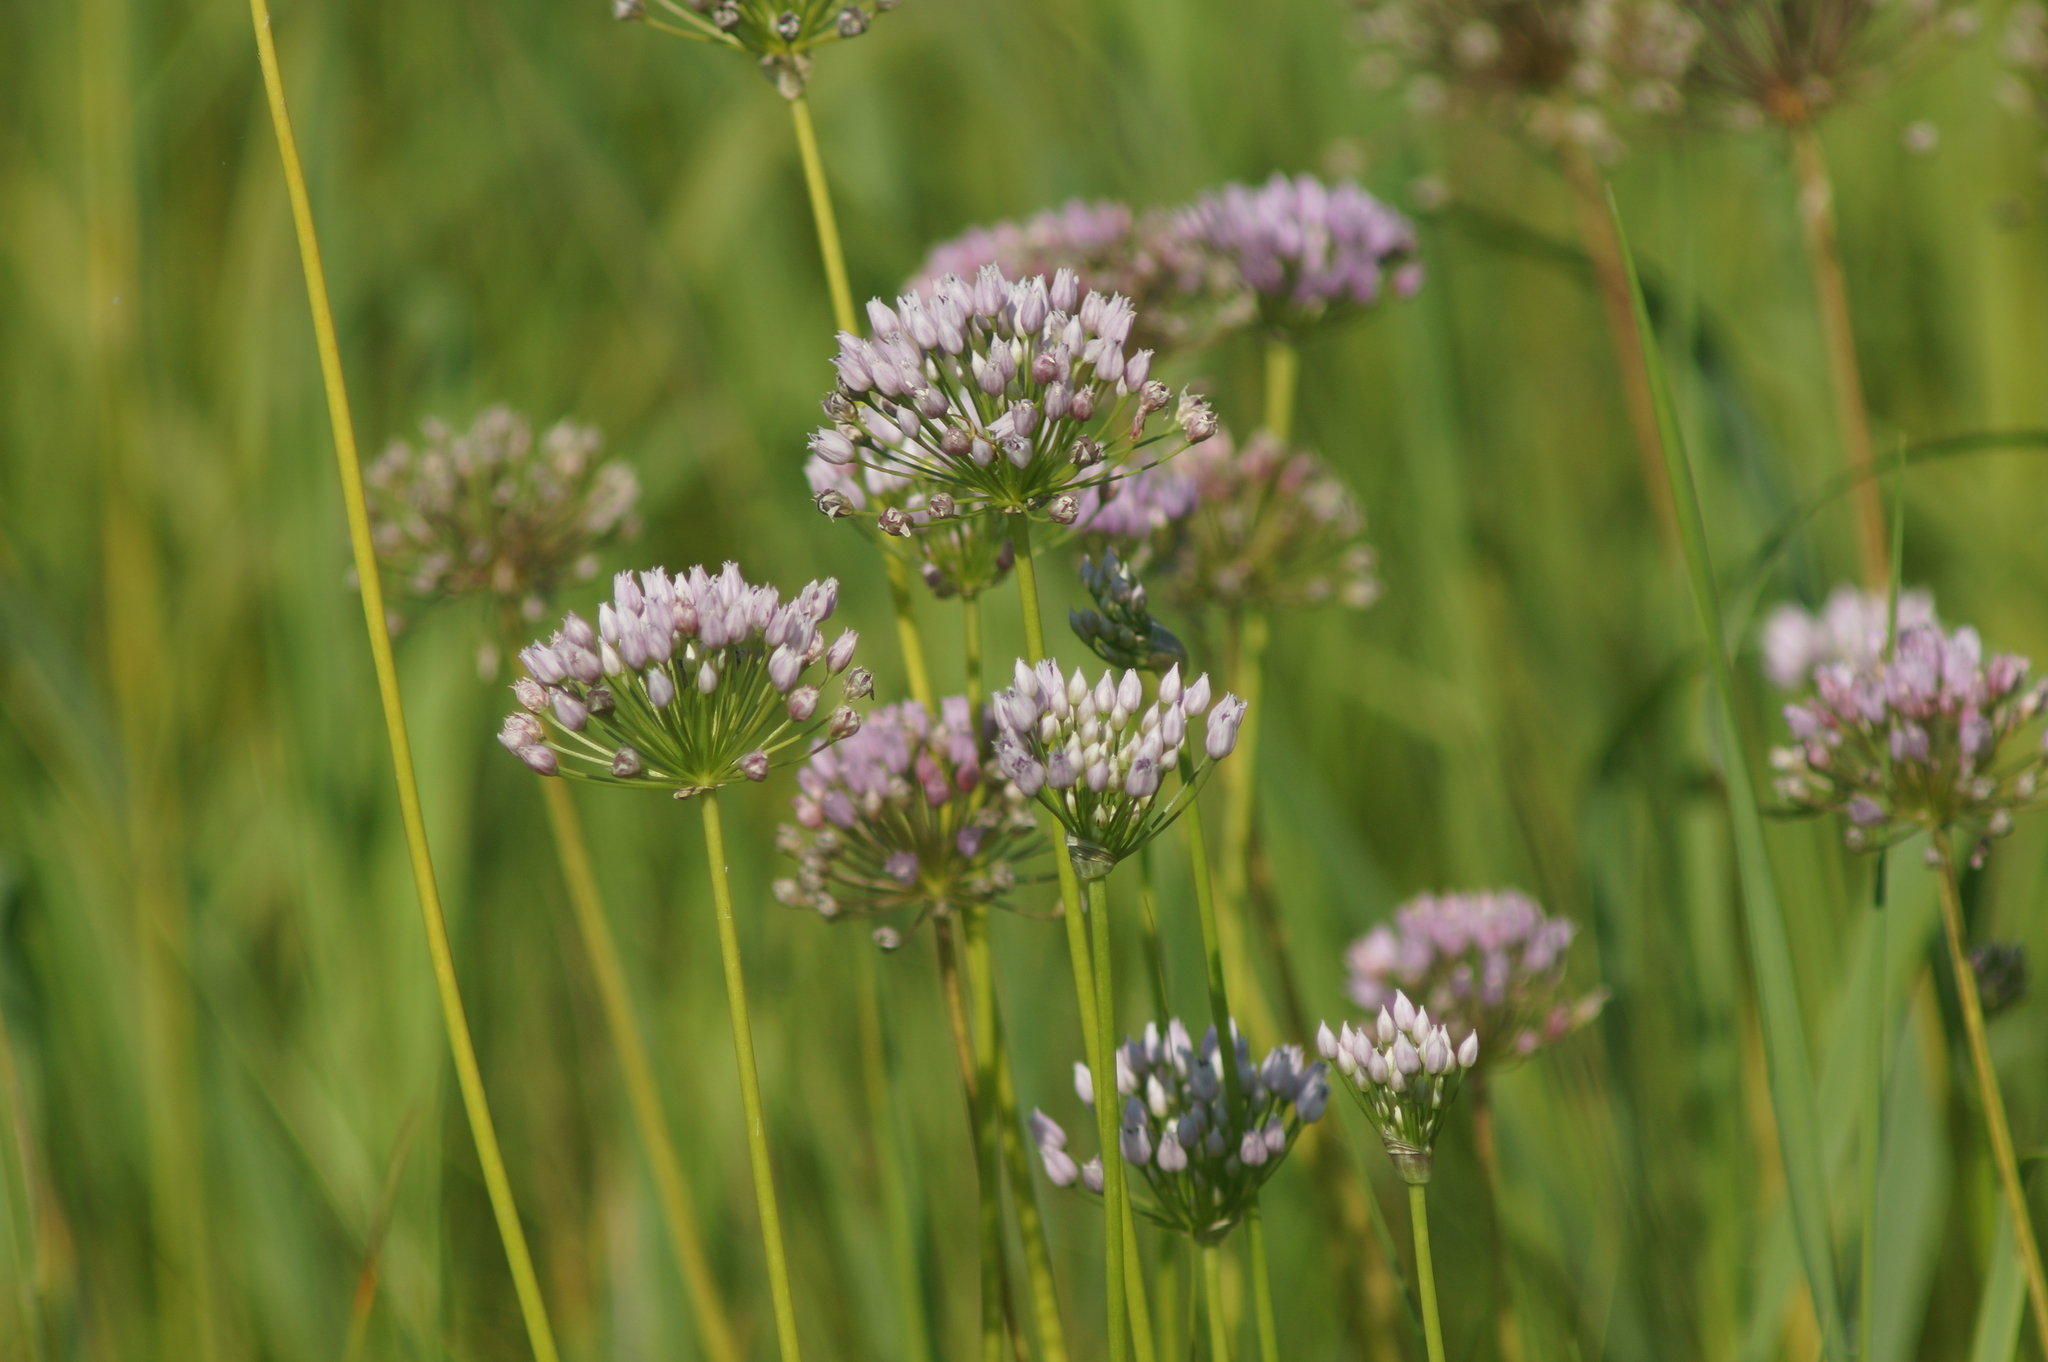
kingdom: Plantae
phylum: Tracheophyta
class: Liliopsida
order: Asparagales
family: Amaryllidaceae
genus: Allium
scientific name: Allium angulosum
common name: Mouse garlic
